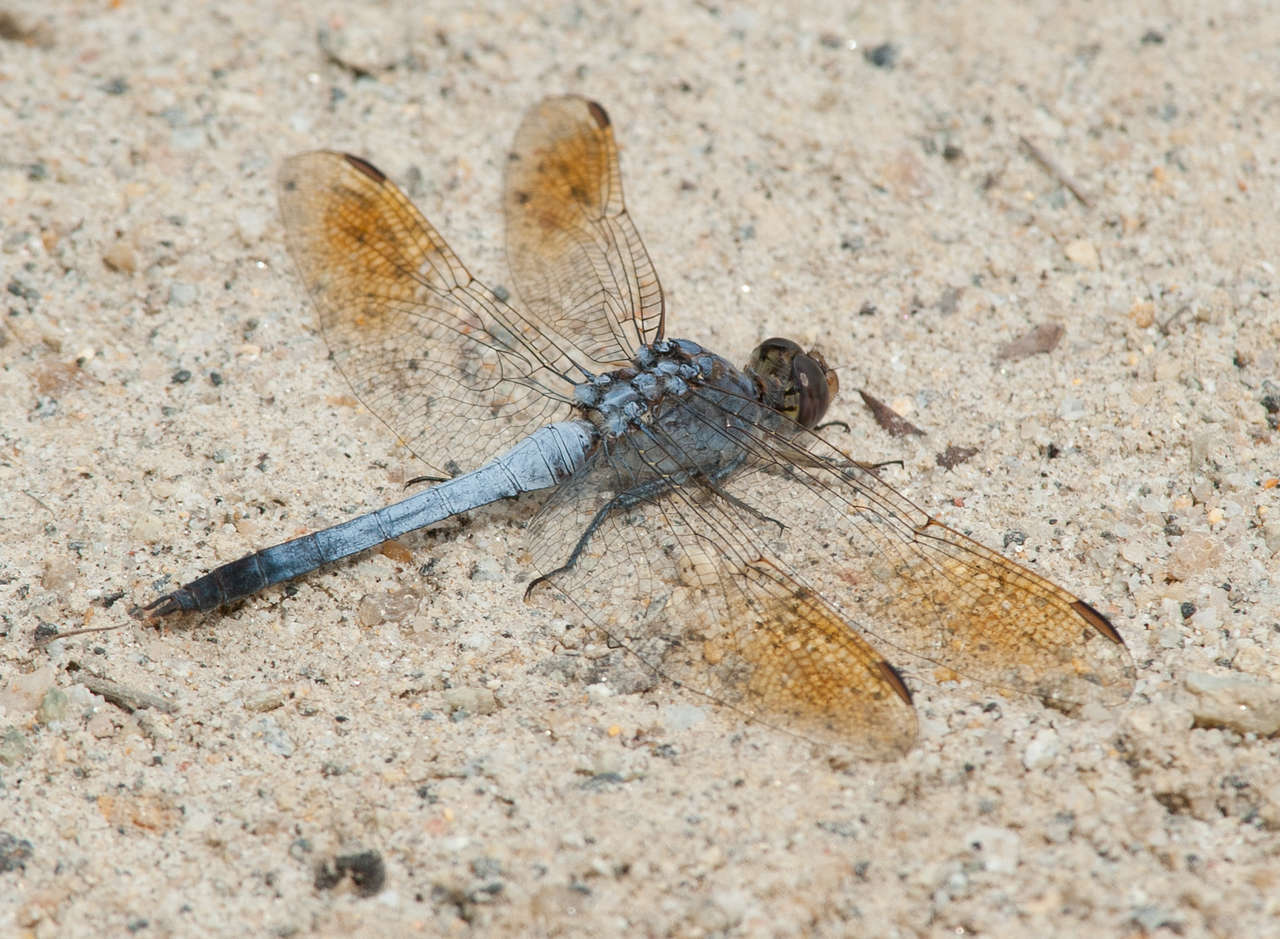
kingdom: Animalia
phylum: Arthropoda
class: Insecta
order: Odonata
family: Libellulidae
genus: Orthetrum
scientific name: Orthetrum caledonicum
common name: Blue skimmer
